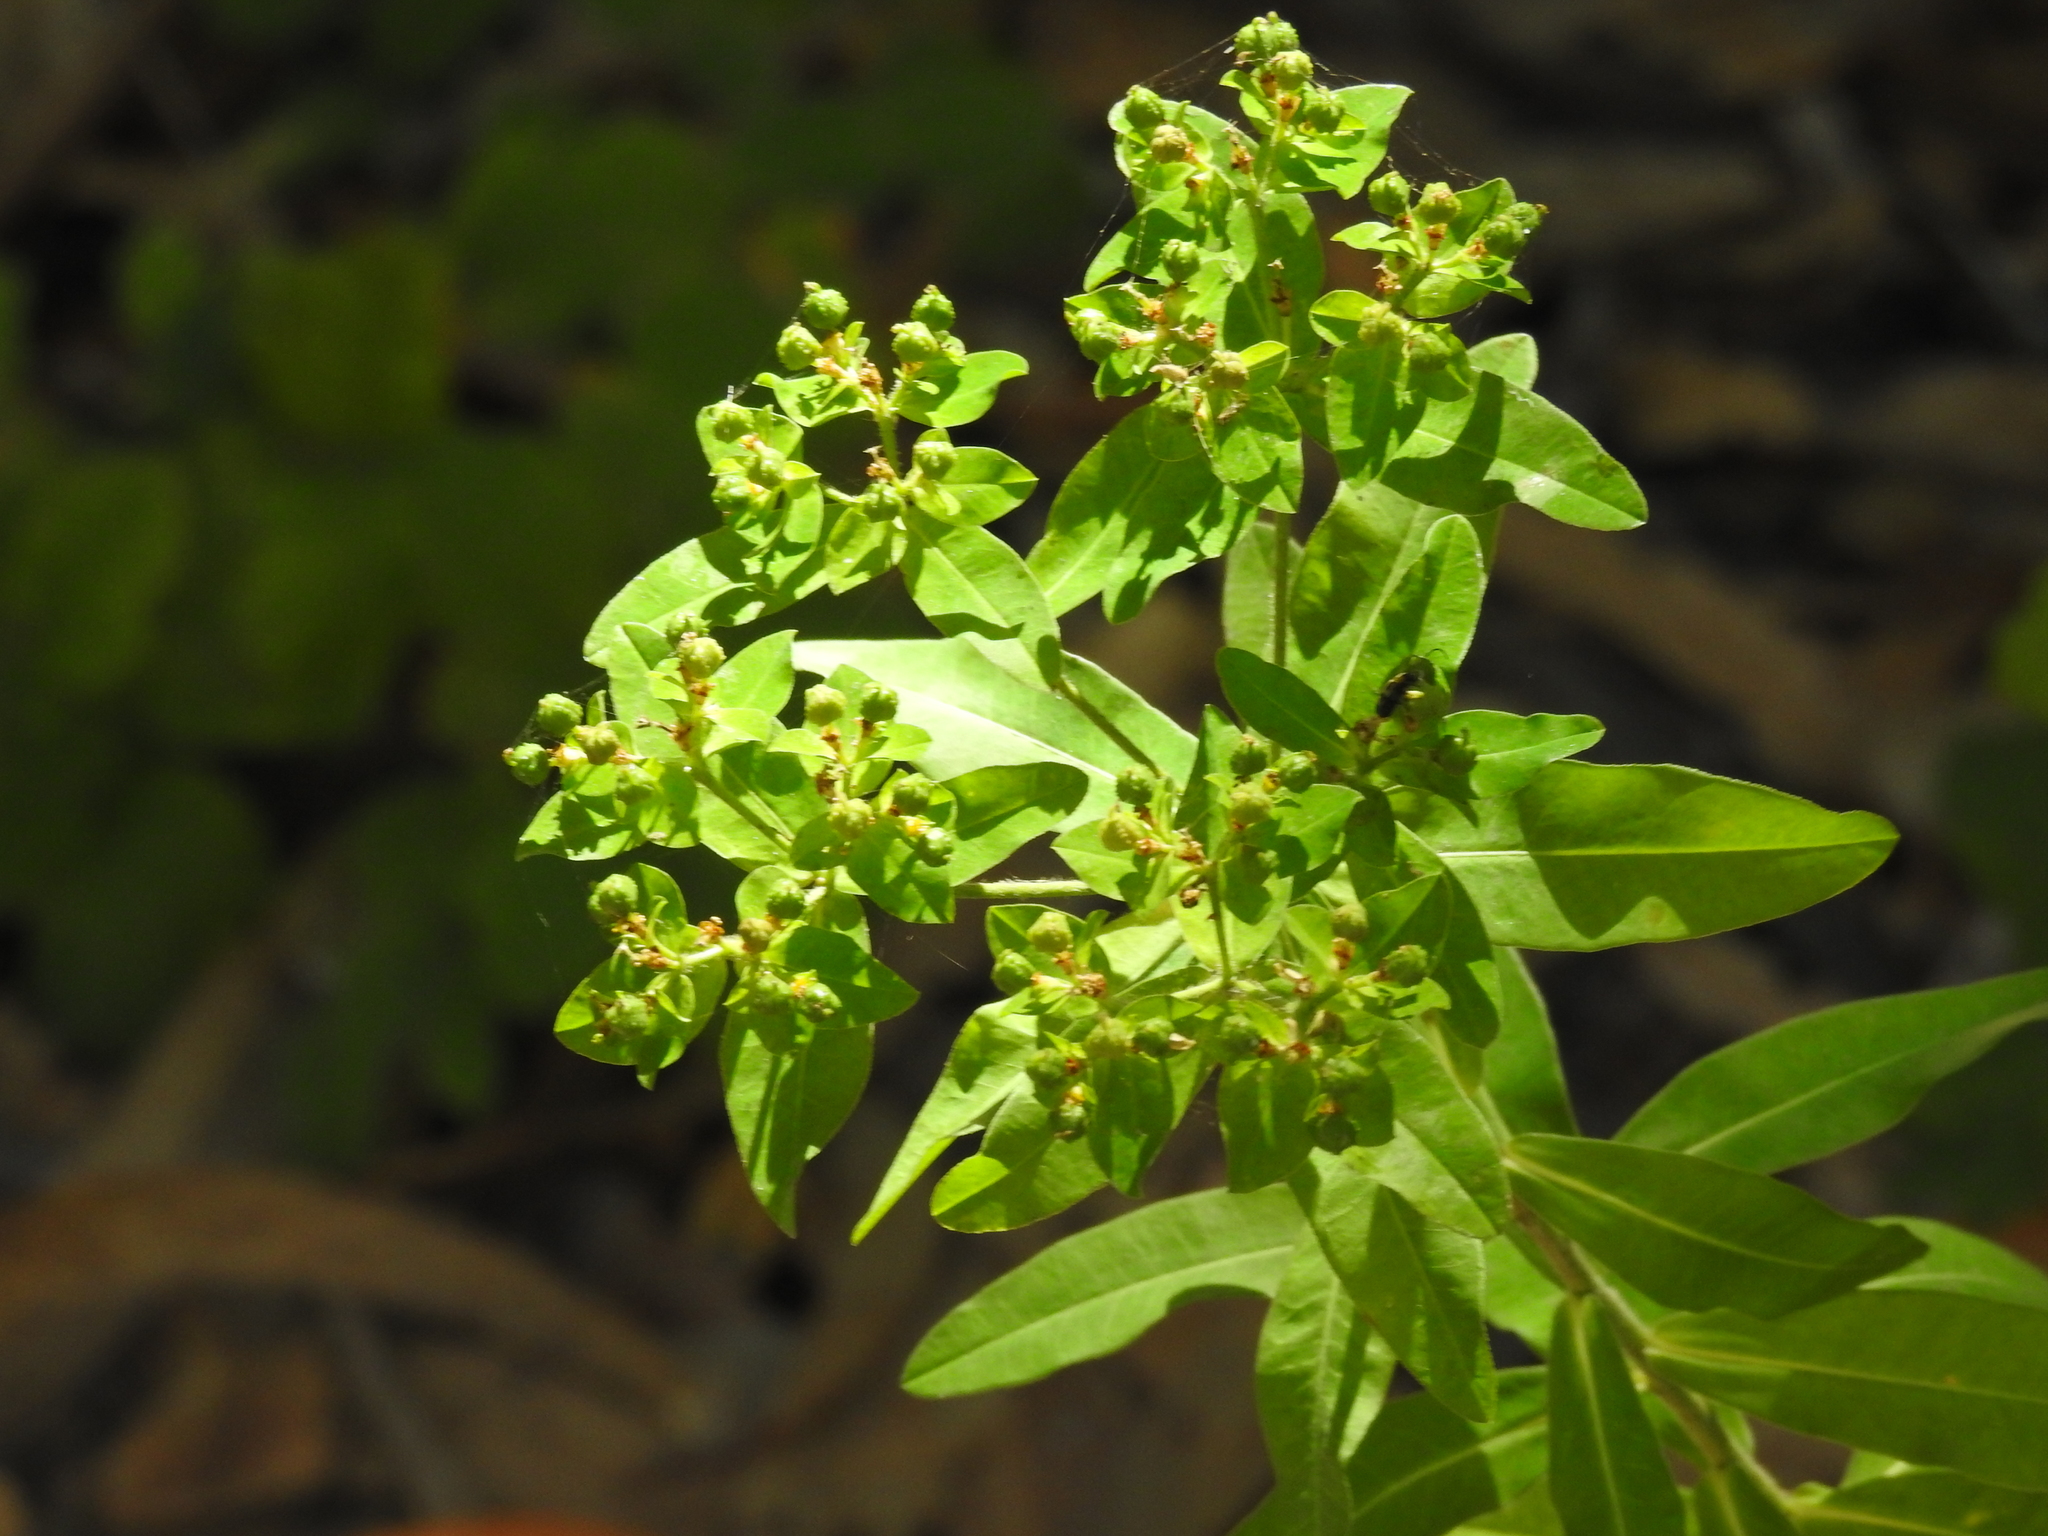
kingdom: Plantae
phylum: Tracheophyta
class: Magnoliopsida
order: Malpighiales
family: Euphorbiaceae
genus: Euphorbia
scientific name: Euphorbia oblongata
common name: Balkan spurge
